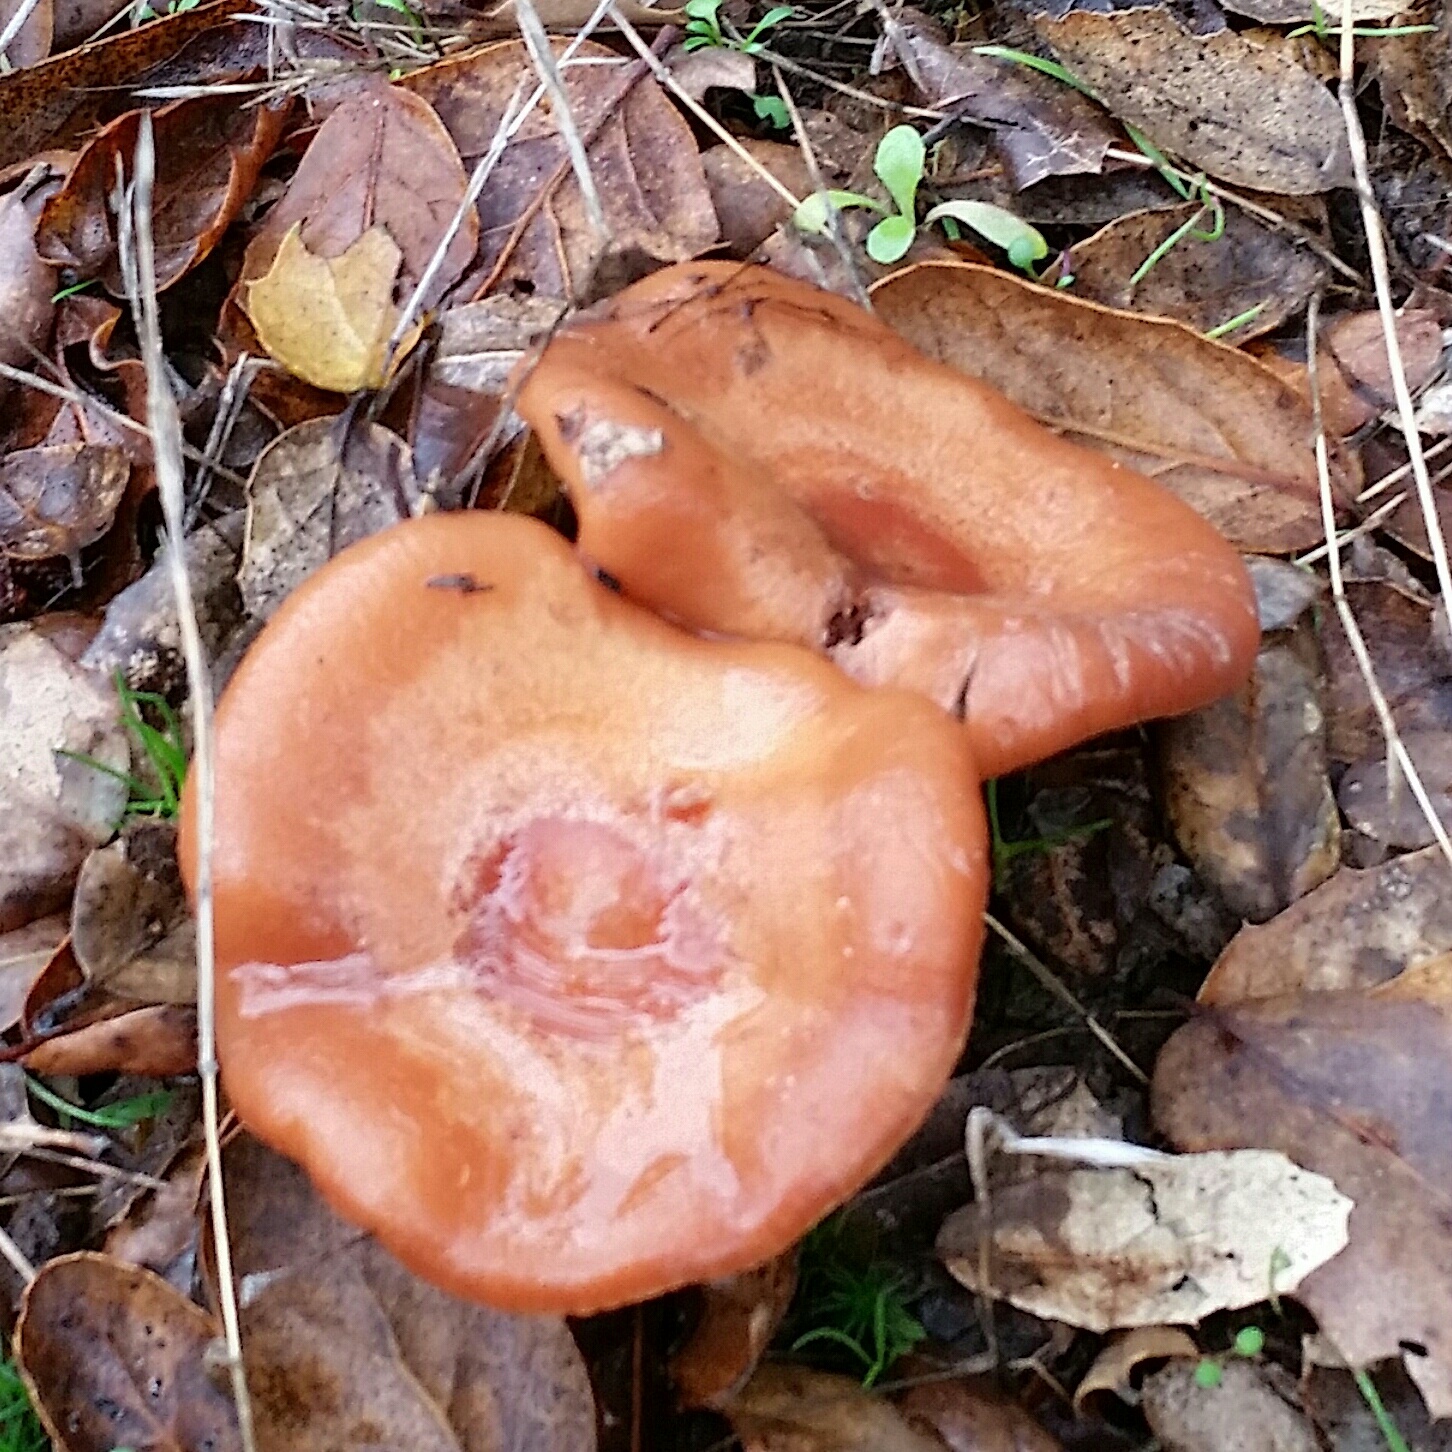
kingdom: Fungi
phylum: Basidiomycota
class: Agaricomycetes
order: Russulales
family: Russulaceae
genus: Lactarius
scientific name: Lactarius xanthogalactus
